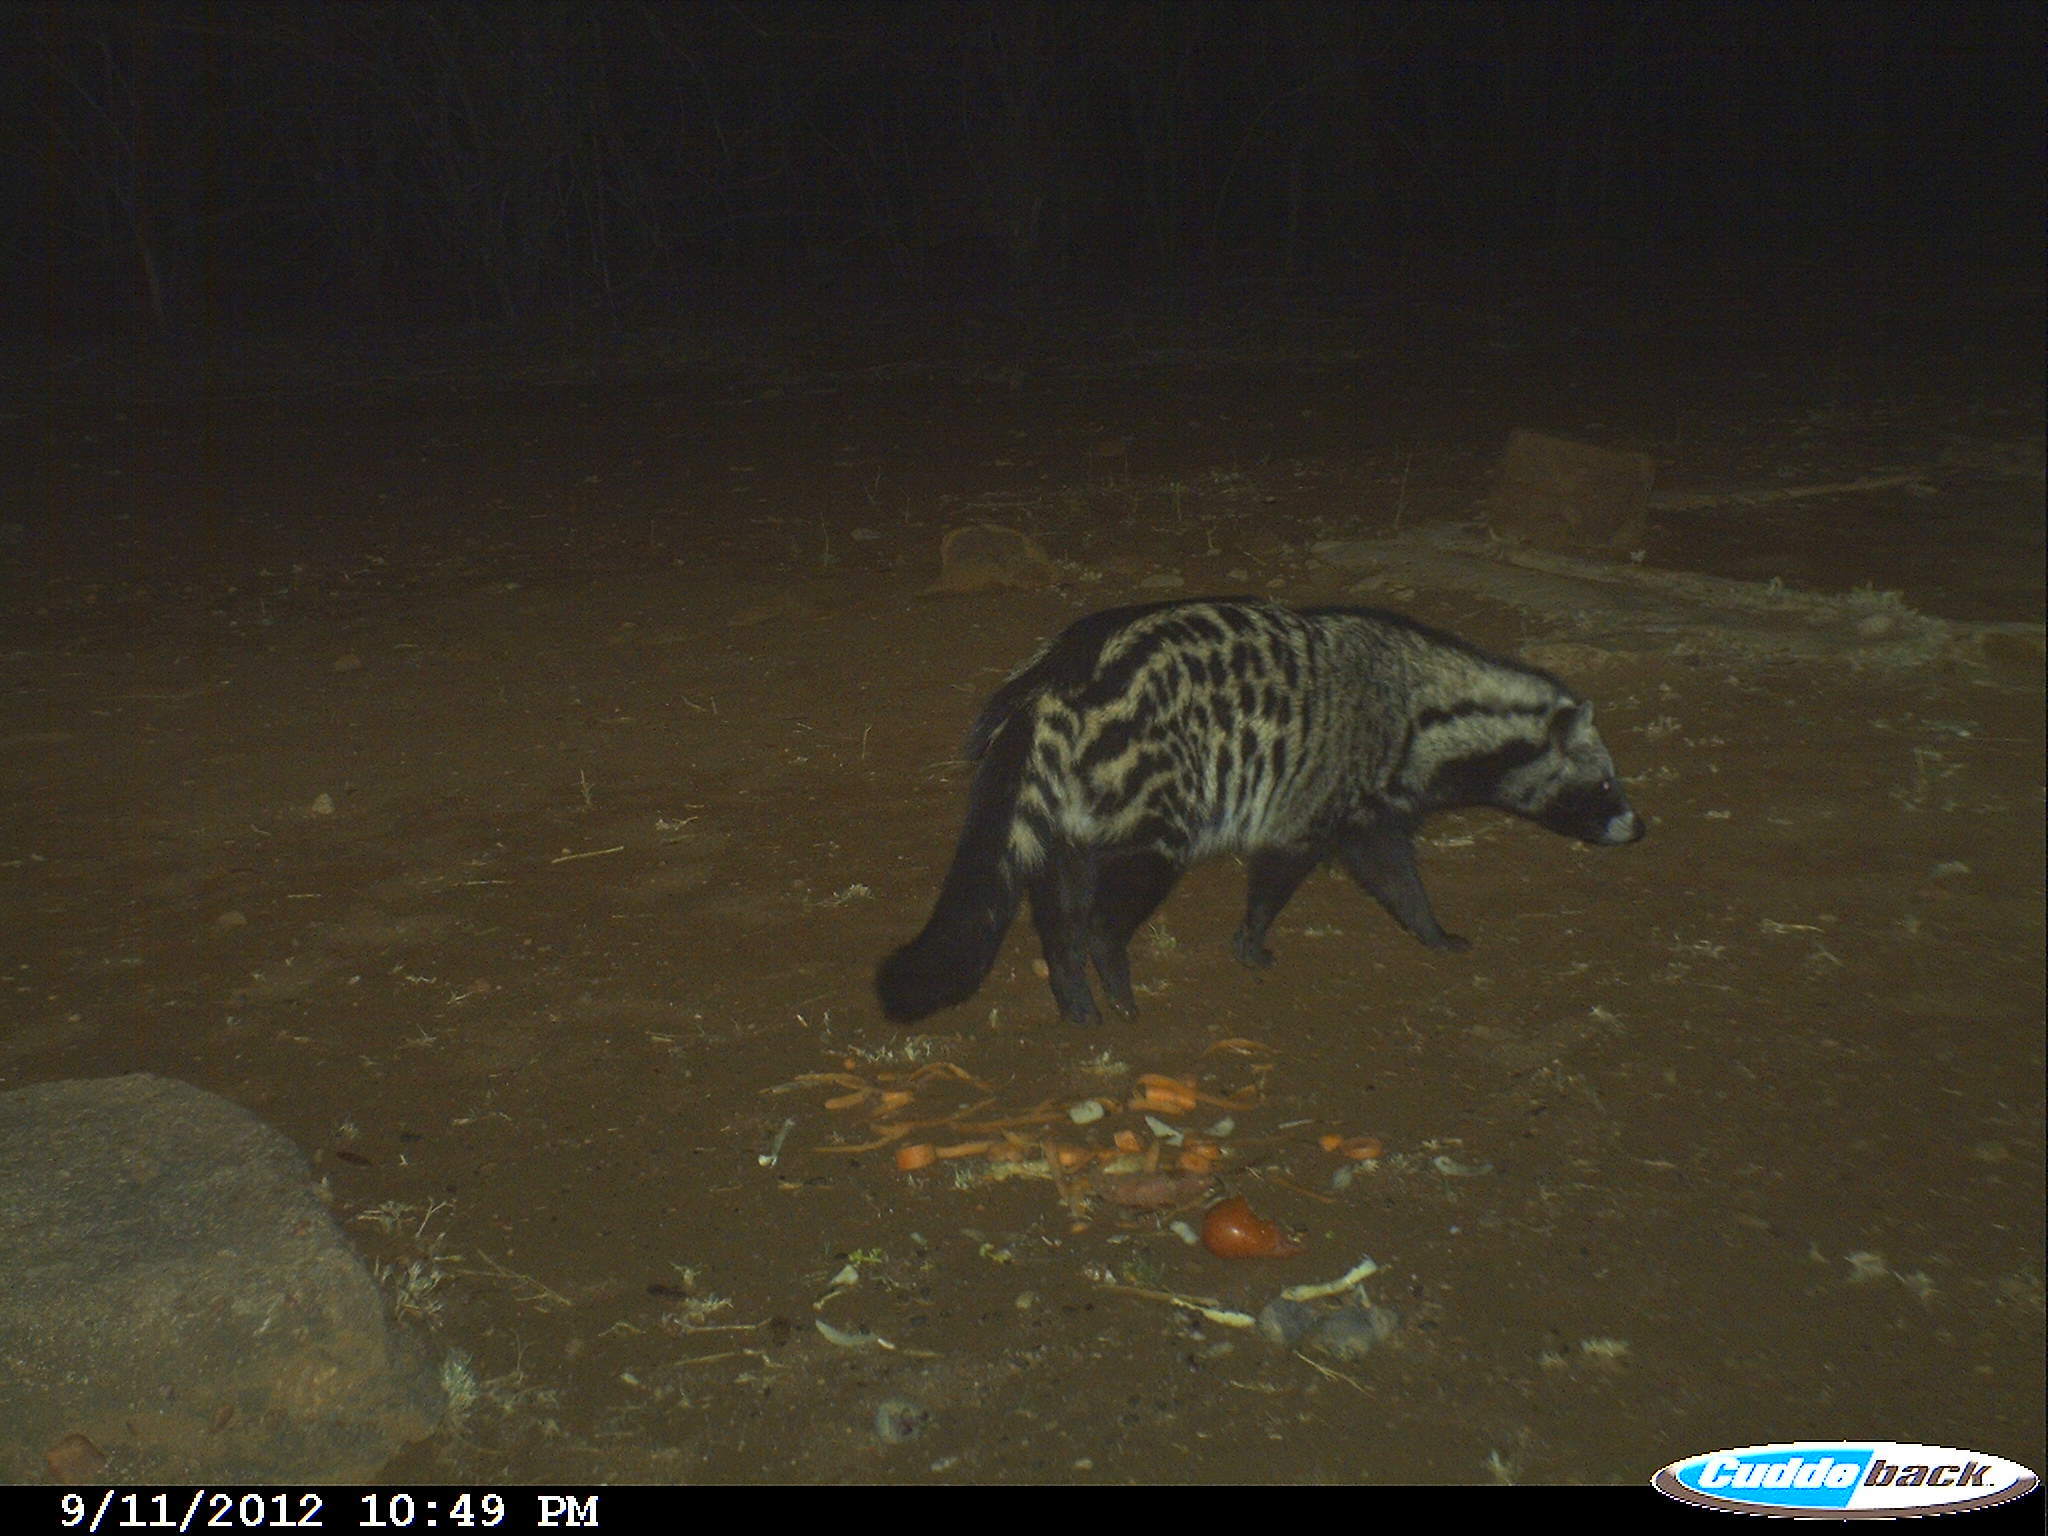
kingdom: Animalia
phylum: Chordata
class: Mammalia
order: Carnivora
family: Viverridae
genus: Civettictis
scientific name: Civettictis civetta
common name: African civet
